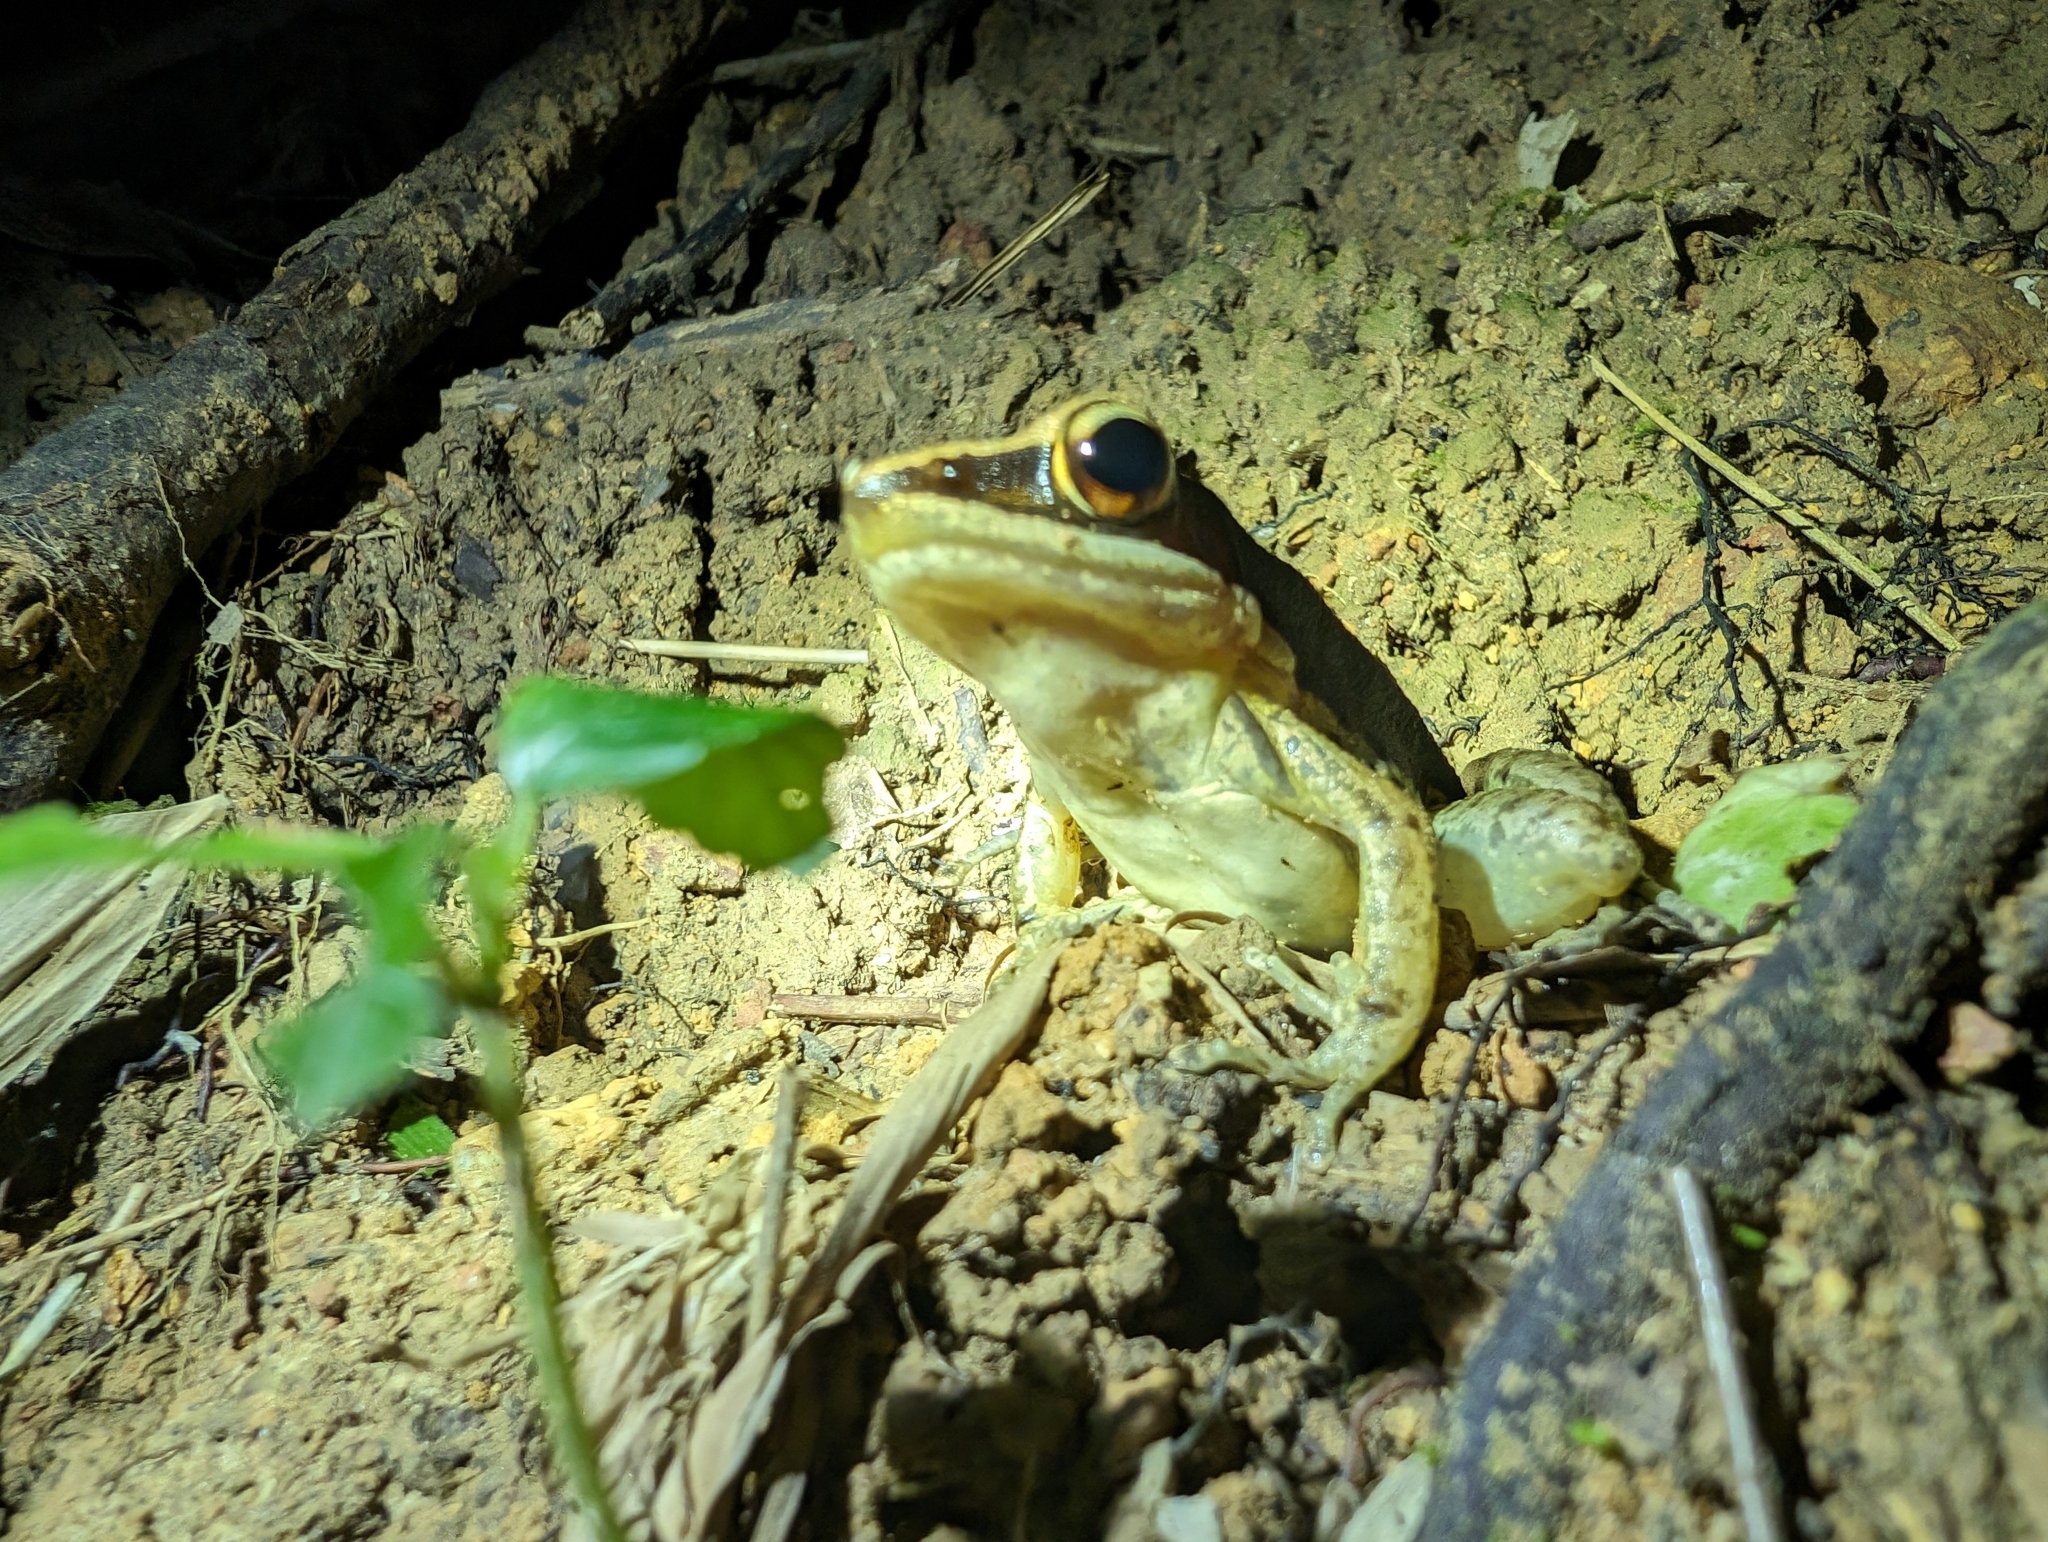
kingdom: Animalia
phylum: Chordata
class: Amphibia
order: Anura
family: Ranidae
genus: Sylvirana
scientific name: Sylvirana malayana
